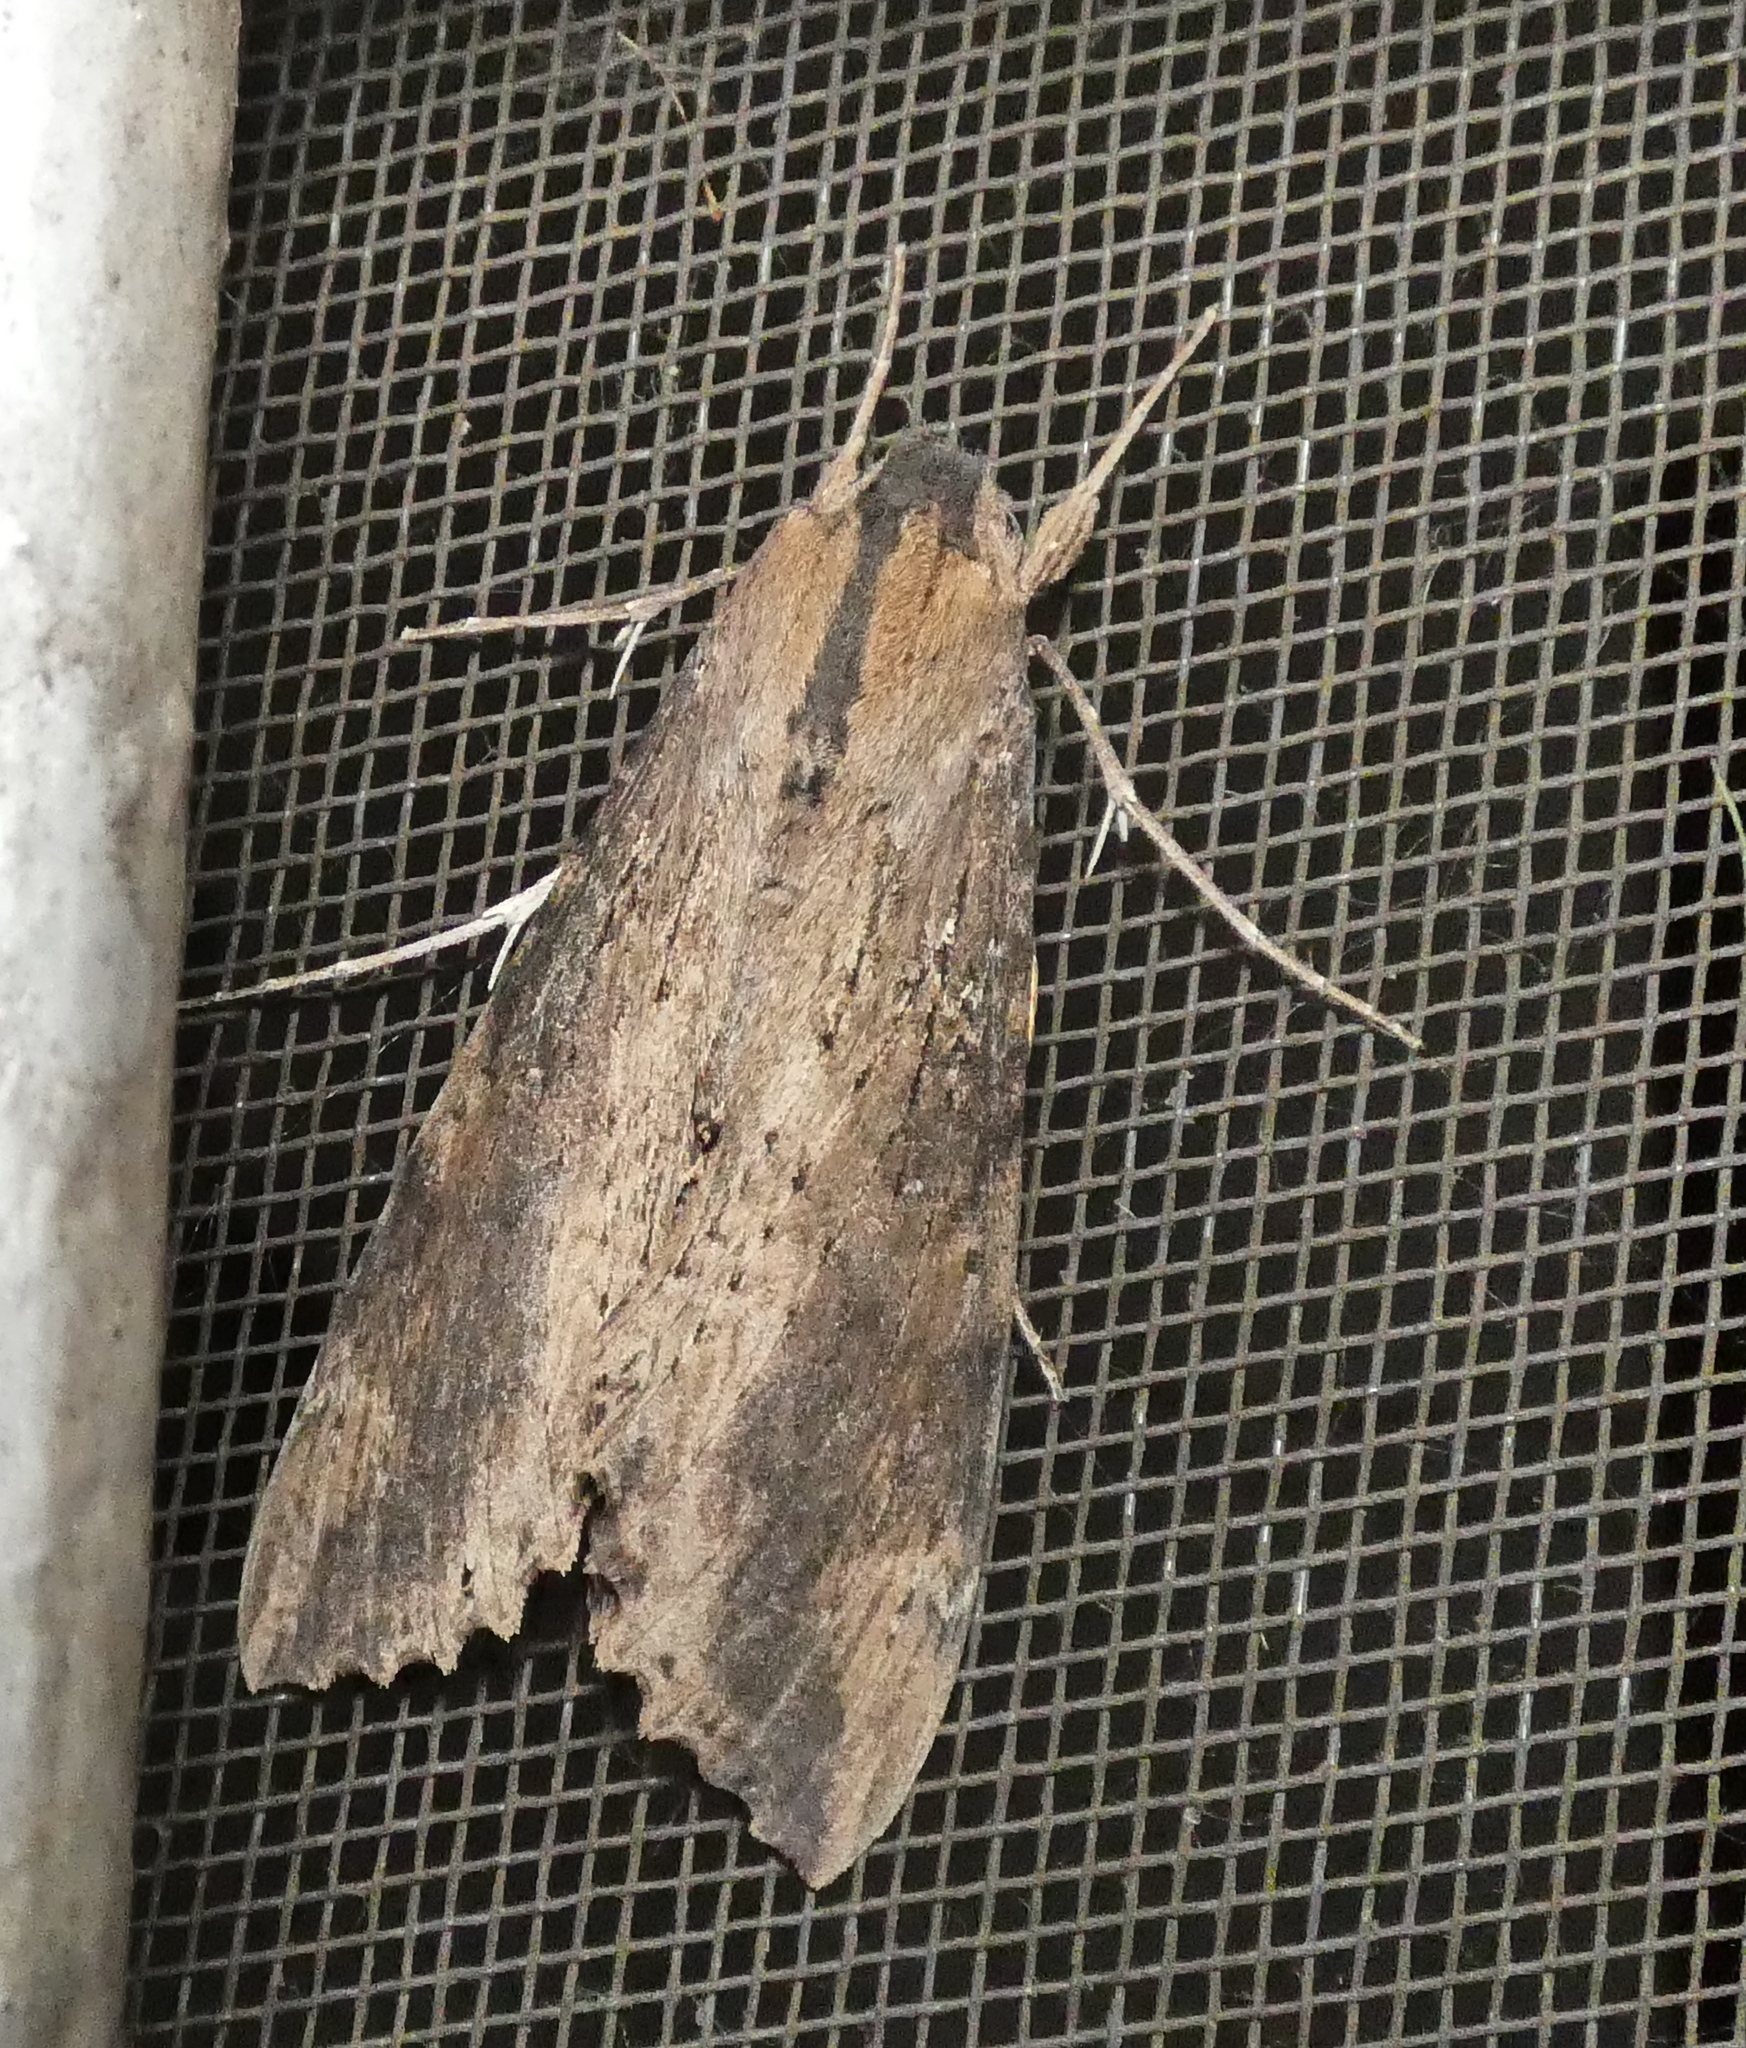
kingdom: Animalia
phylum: Arthropoda
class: Insecta
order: Lepidoptera
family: Sphingidae
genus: Erinnyis
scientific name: Erinnyis crameri
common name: Cramer's sphinx
